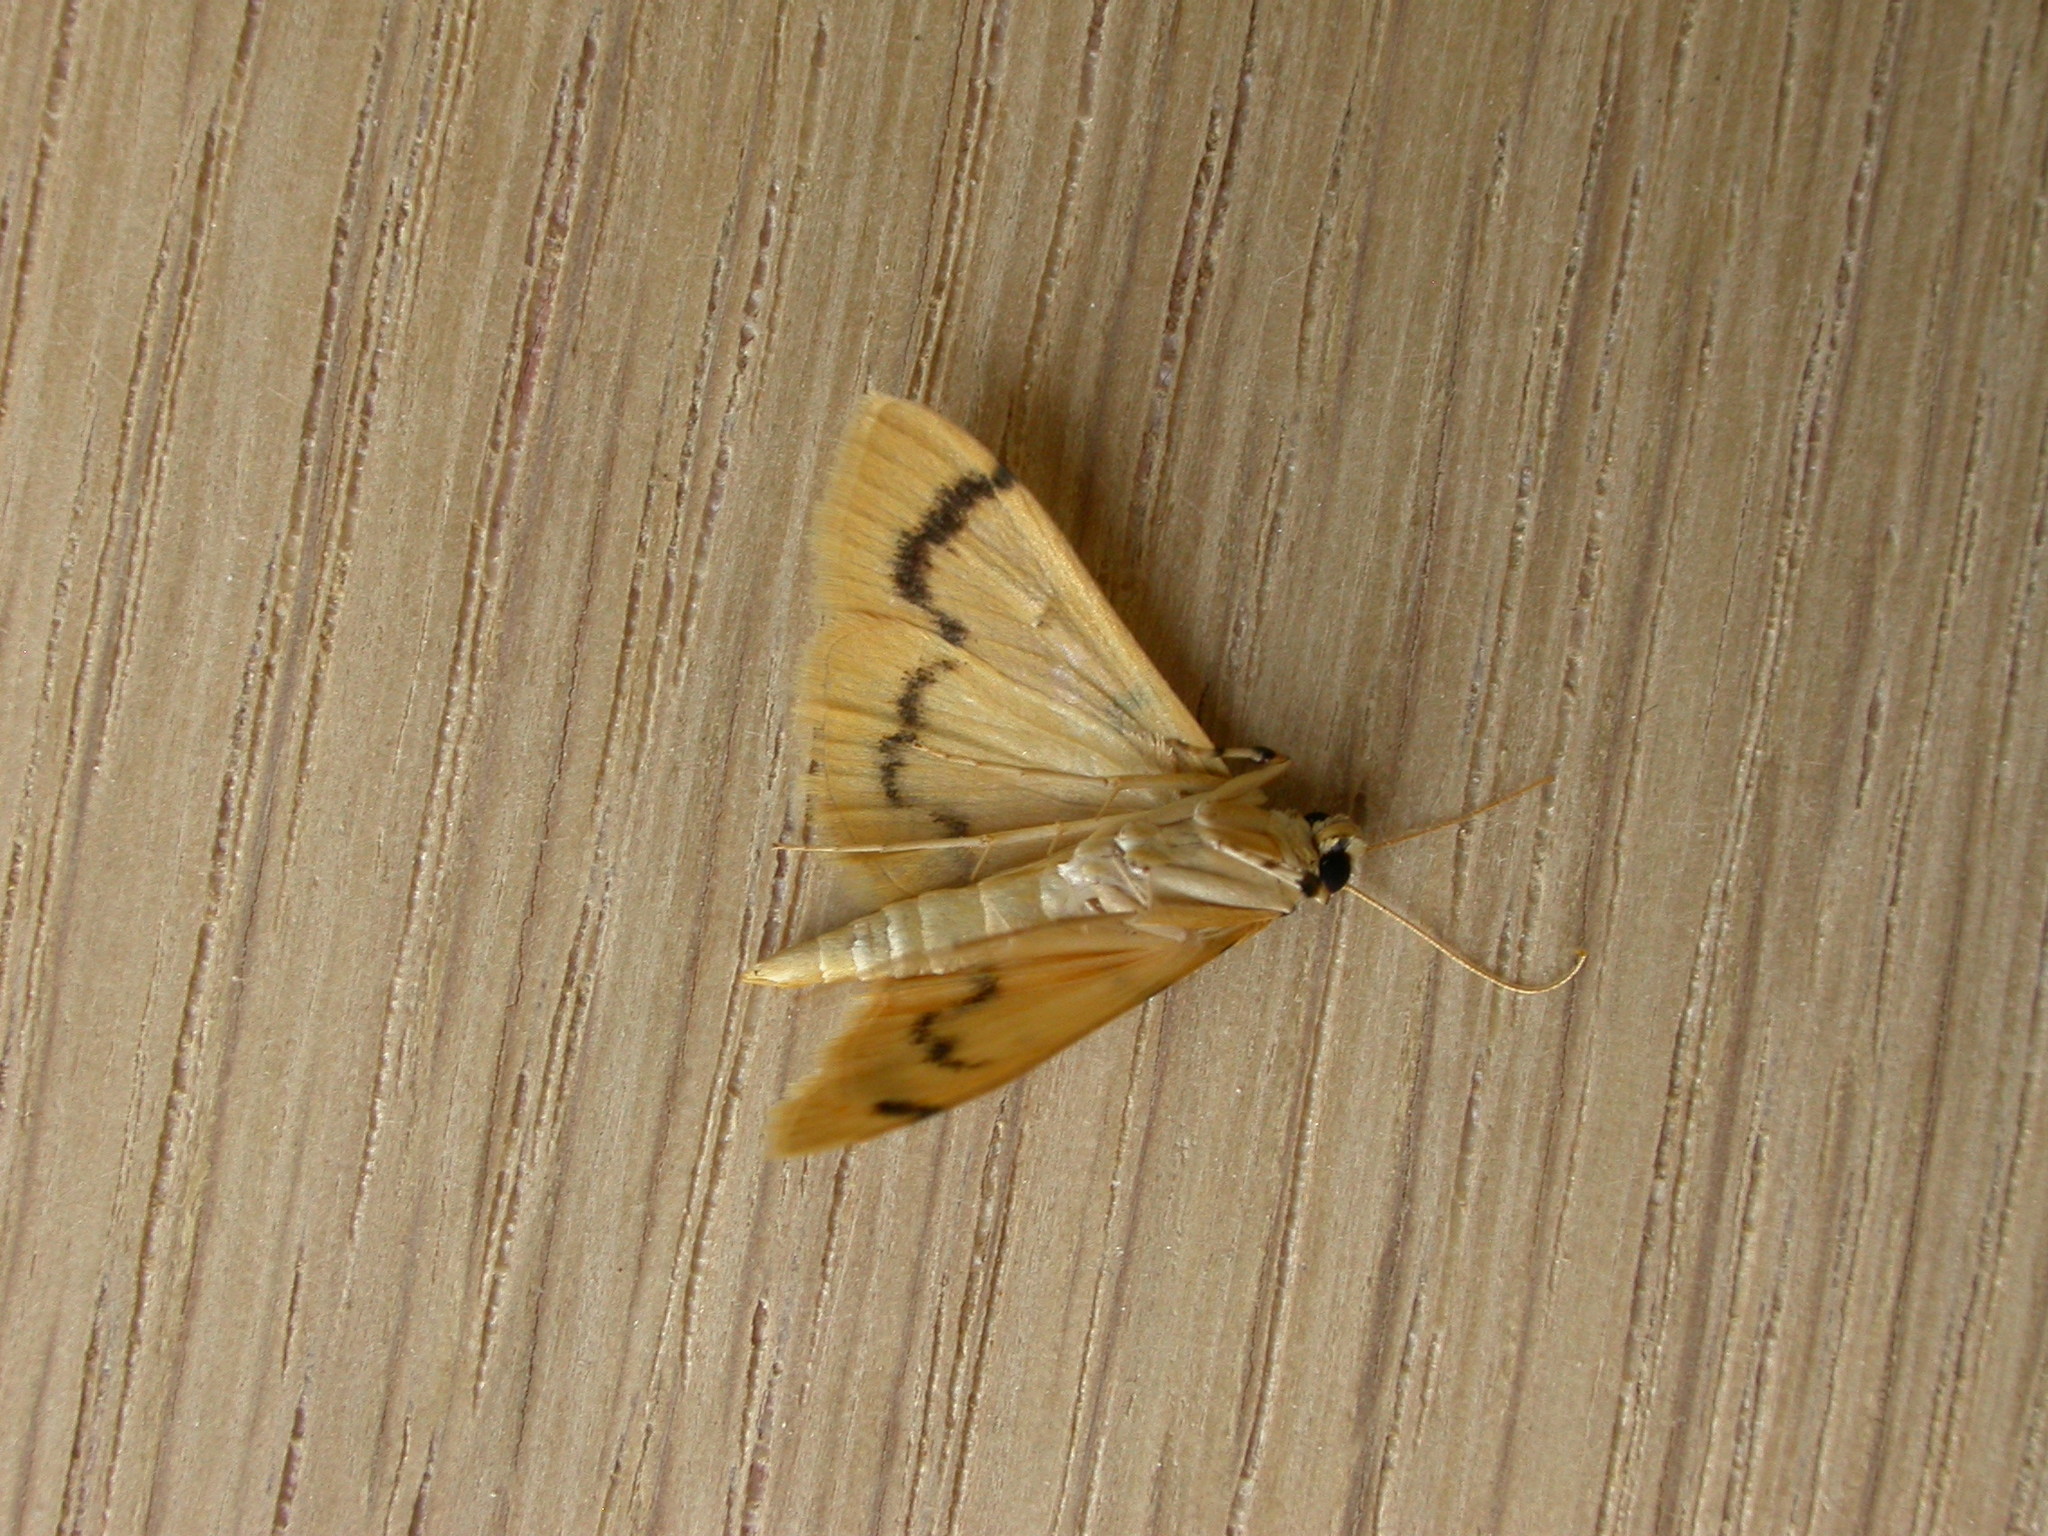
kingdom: Animalia
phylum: Arthropoda
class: Insecta
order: Lepidoptera
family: Crambidae
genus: Dichocrocis
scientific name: Dichocrocis clytusalis
